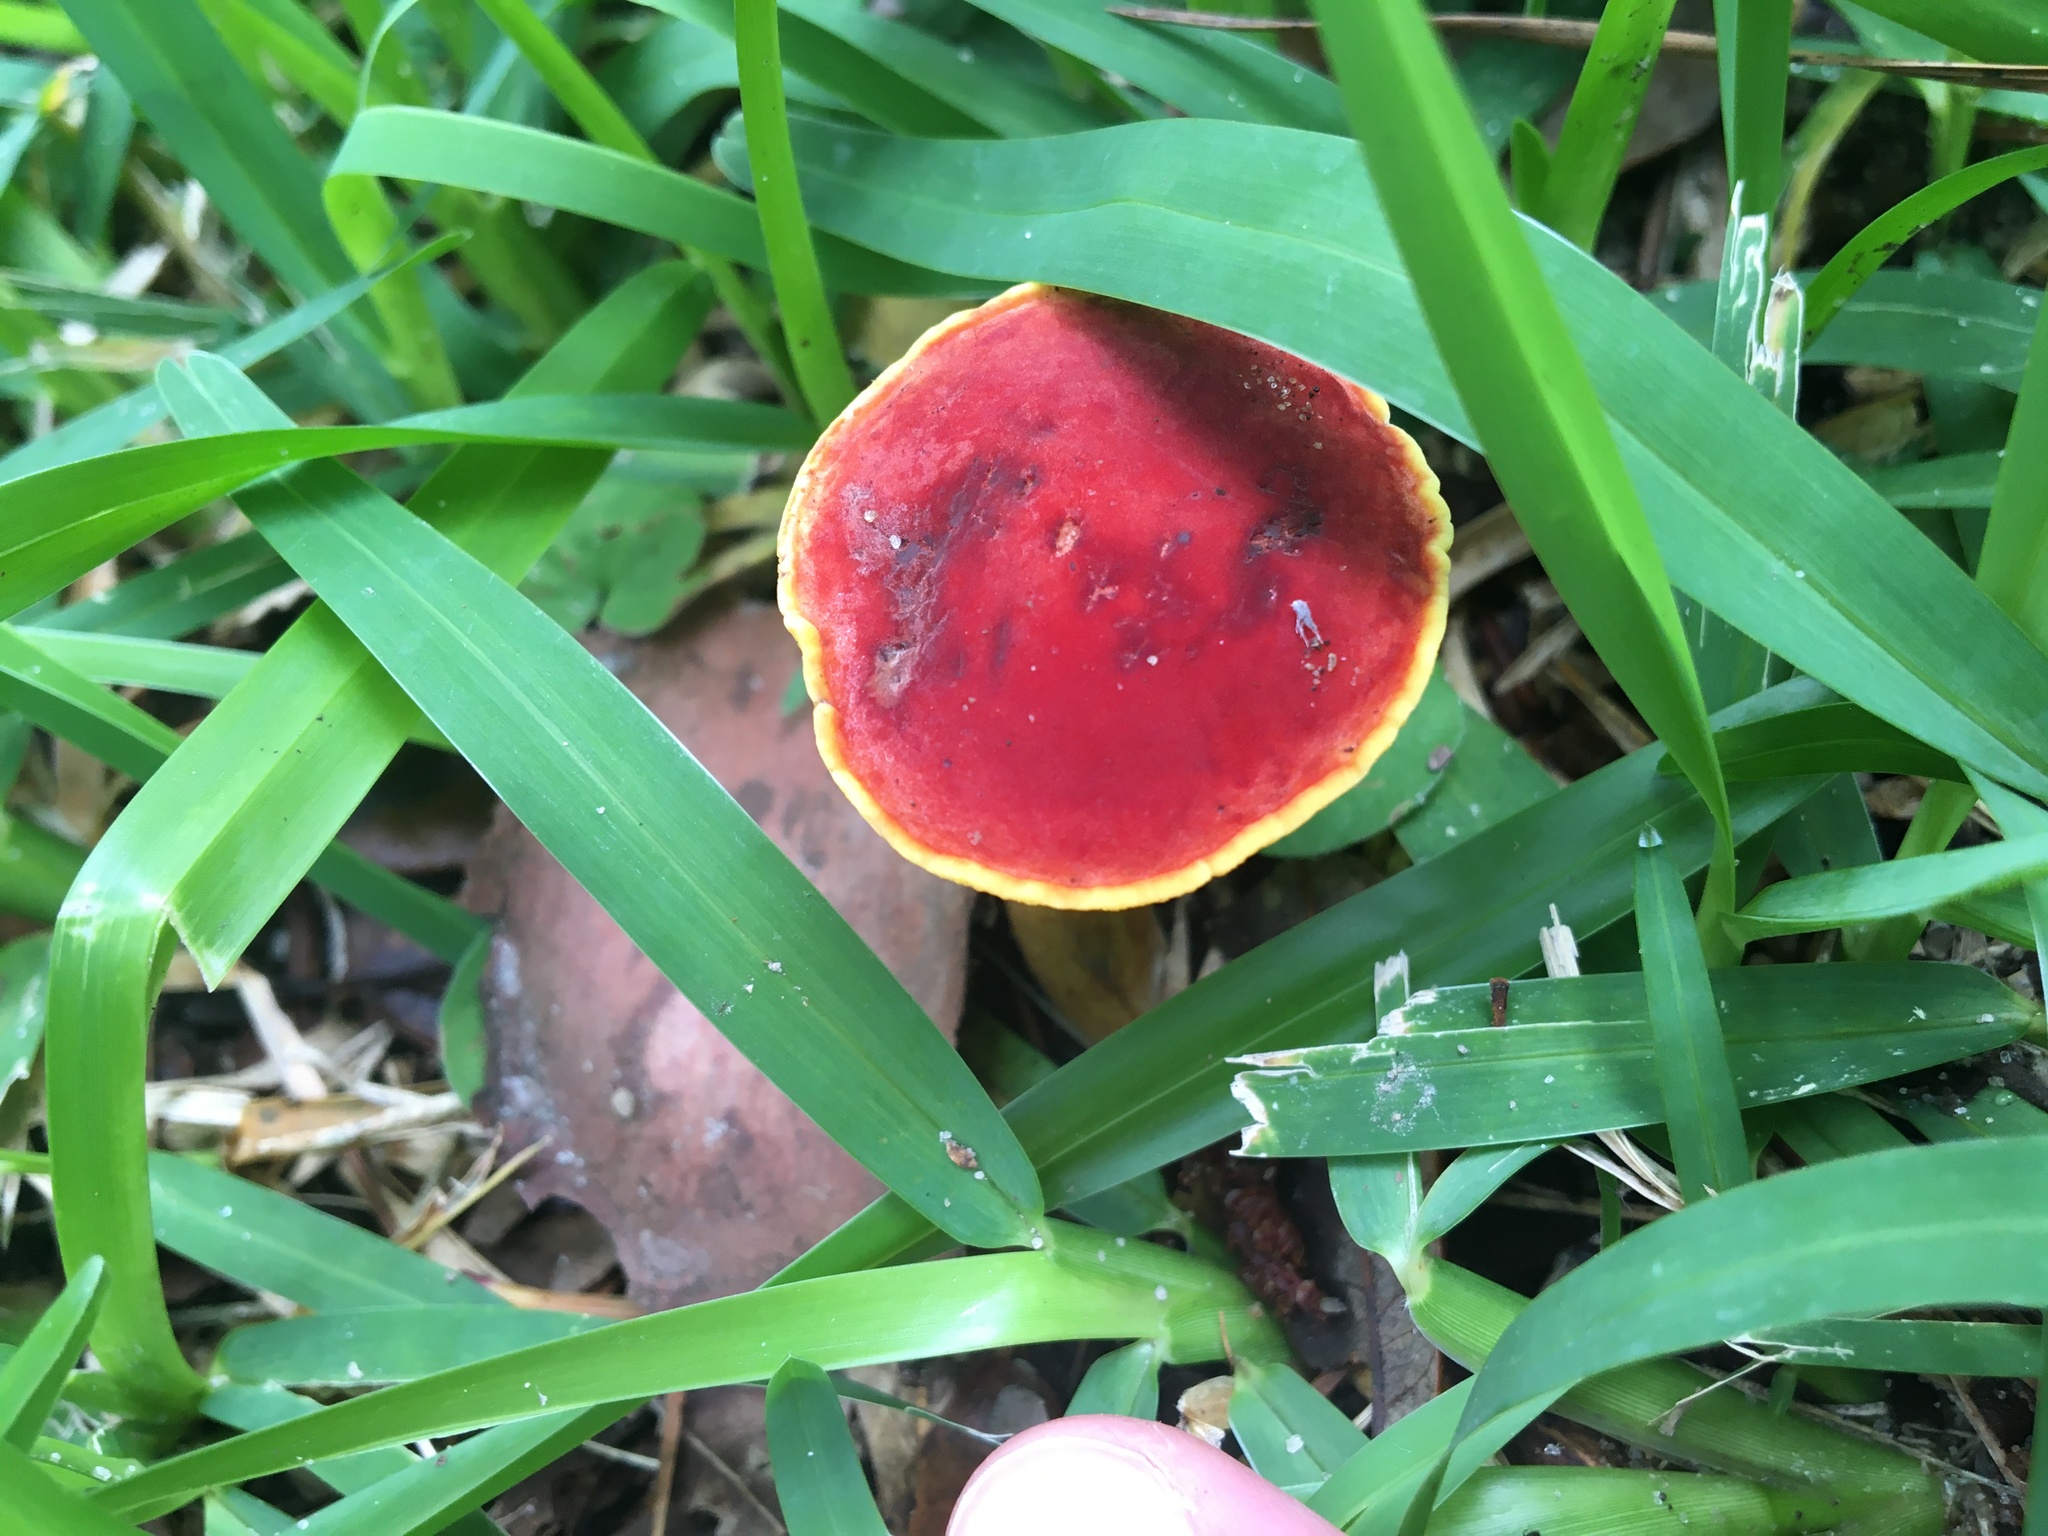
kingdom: Fungi
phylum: Basidiomycota
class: Agaricomycetes
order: Boletales
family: Boletaceae
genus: Hortiboletus
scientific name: Hortiboletus rubellus
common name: Ruby bolete
